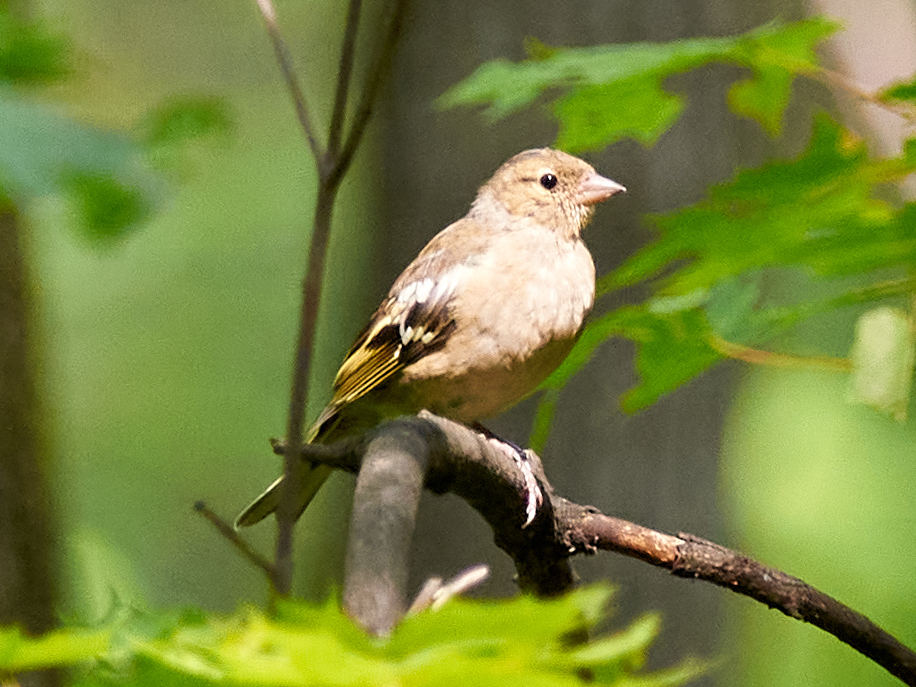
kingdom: Animalia
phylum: Chordata
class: Aves
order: Passeriformes
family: Fringillidae
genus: Fringilla
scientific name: Fringilla coelebs
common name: Common chaffinch
